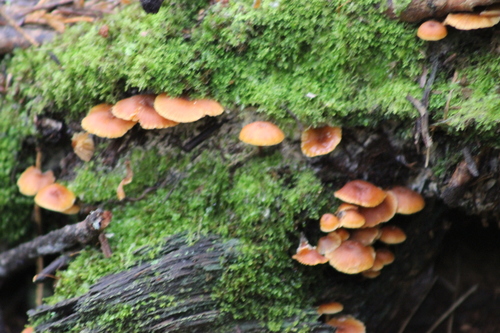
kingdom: Fungi
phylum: Basidiomycota
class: Agaricomycetes
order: Agaricales
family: Mycenaceae
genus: Xeromphalina
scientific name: Xeromphalina campanella
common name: Pinewood gingertail
